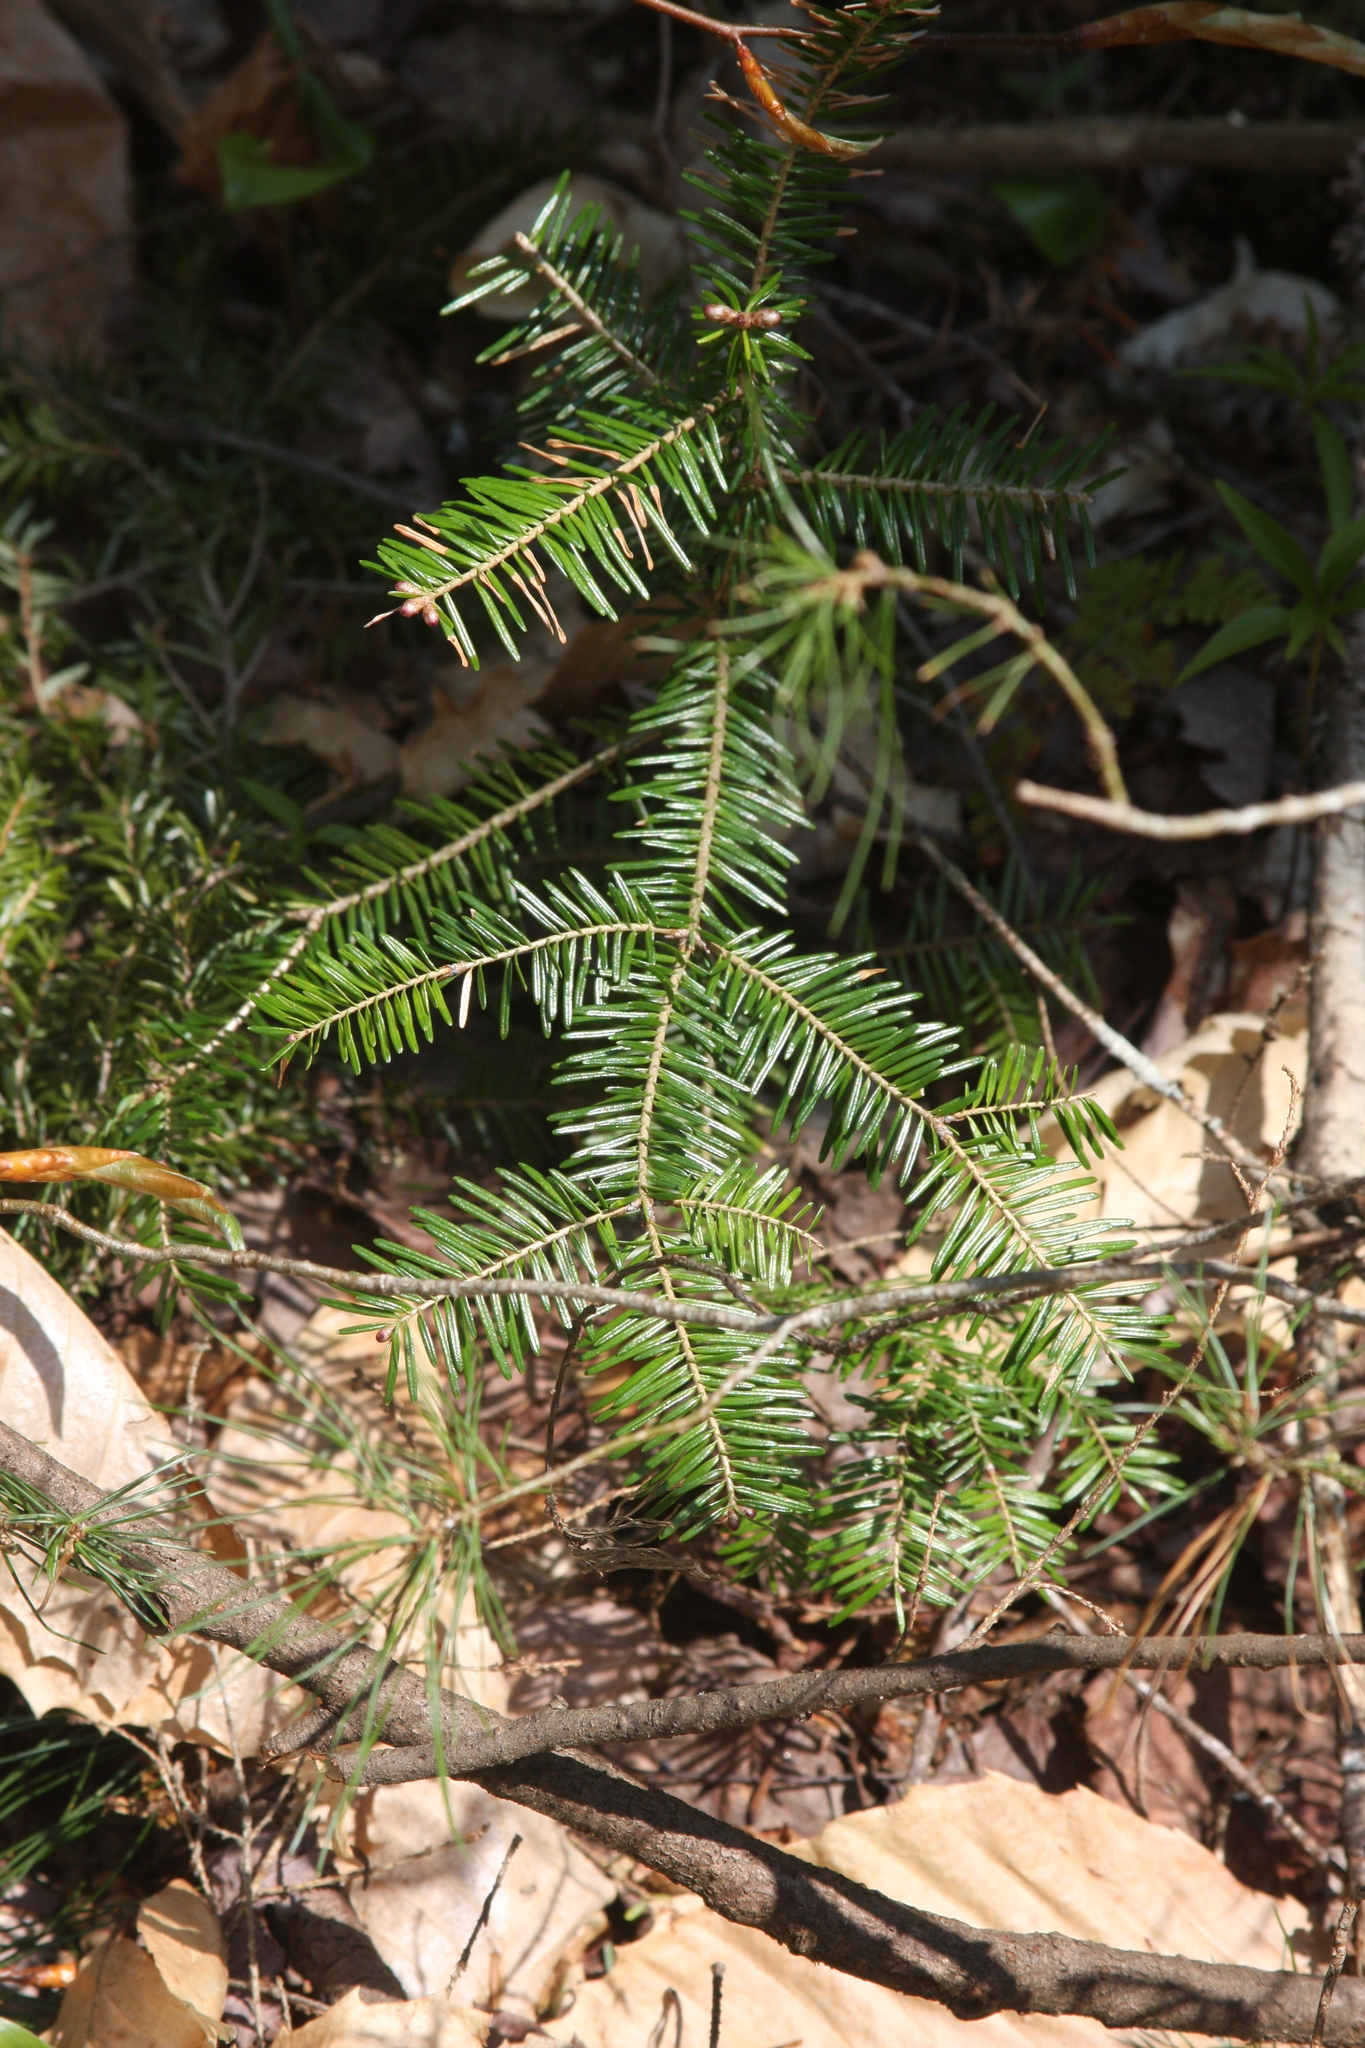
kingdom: Plantae
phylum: Tracheophyta
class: Pinopsida
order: Pinales
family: Pinaceae
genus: Abies
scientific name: Abies balsamea
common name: Balsam fir
